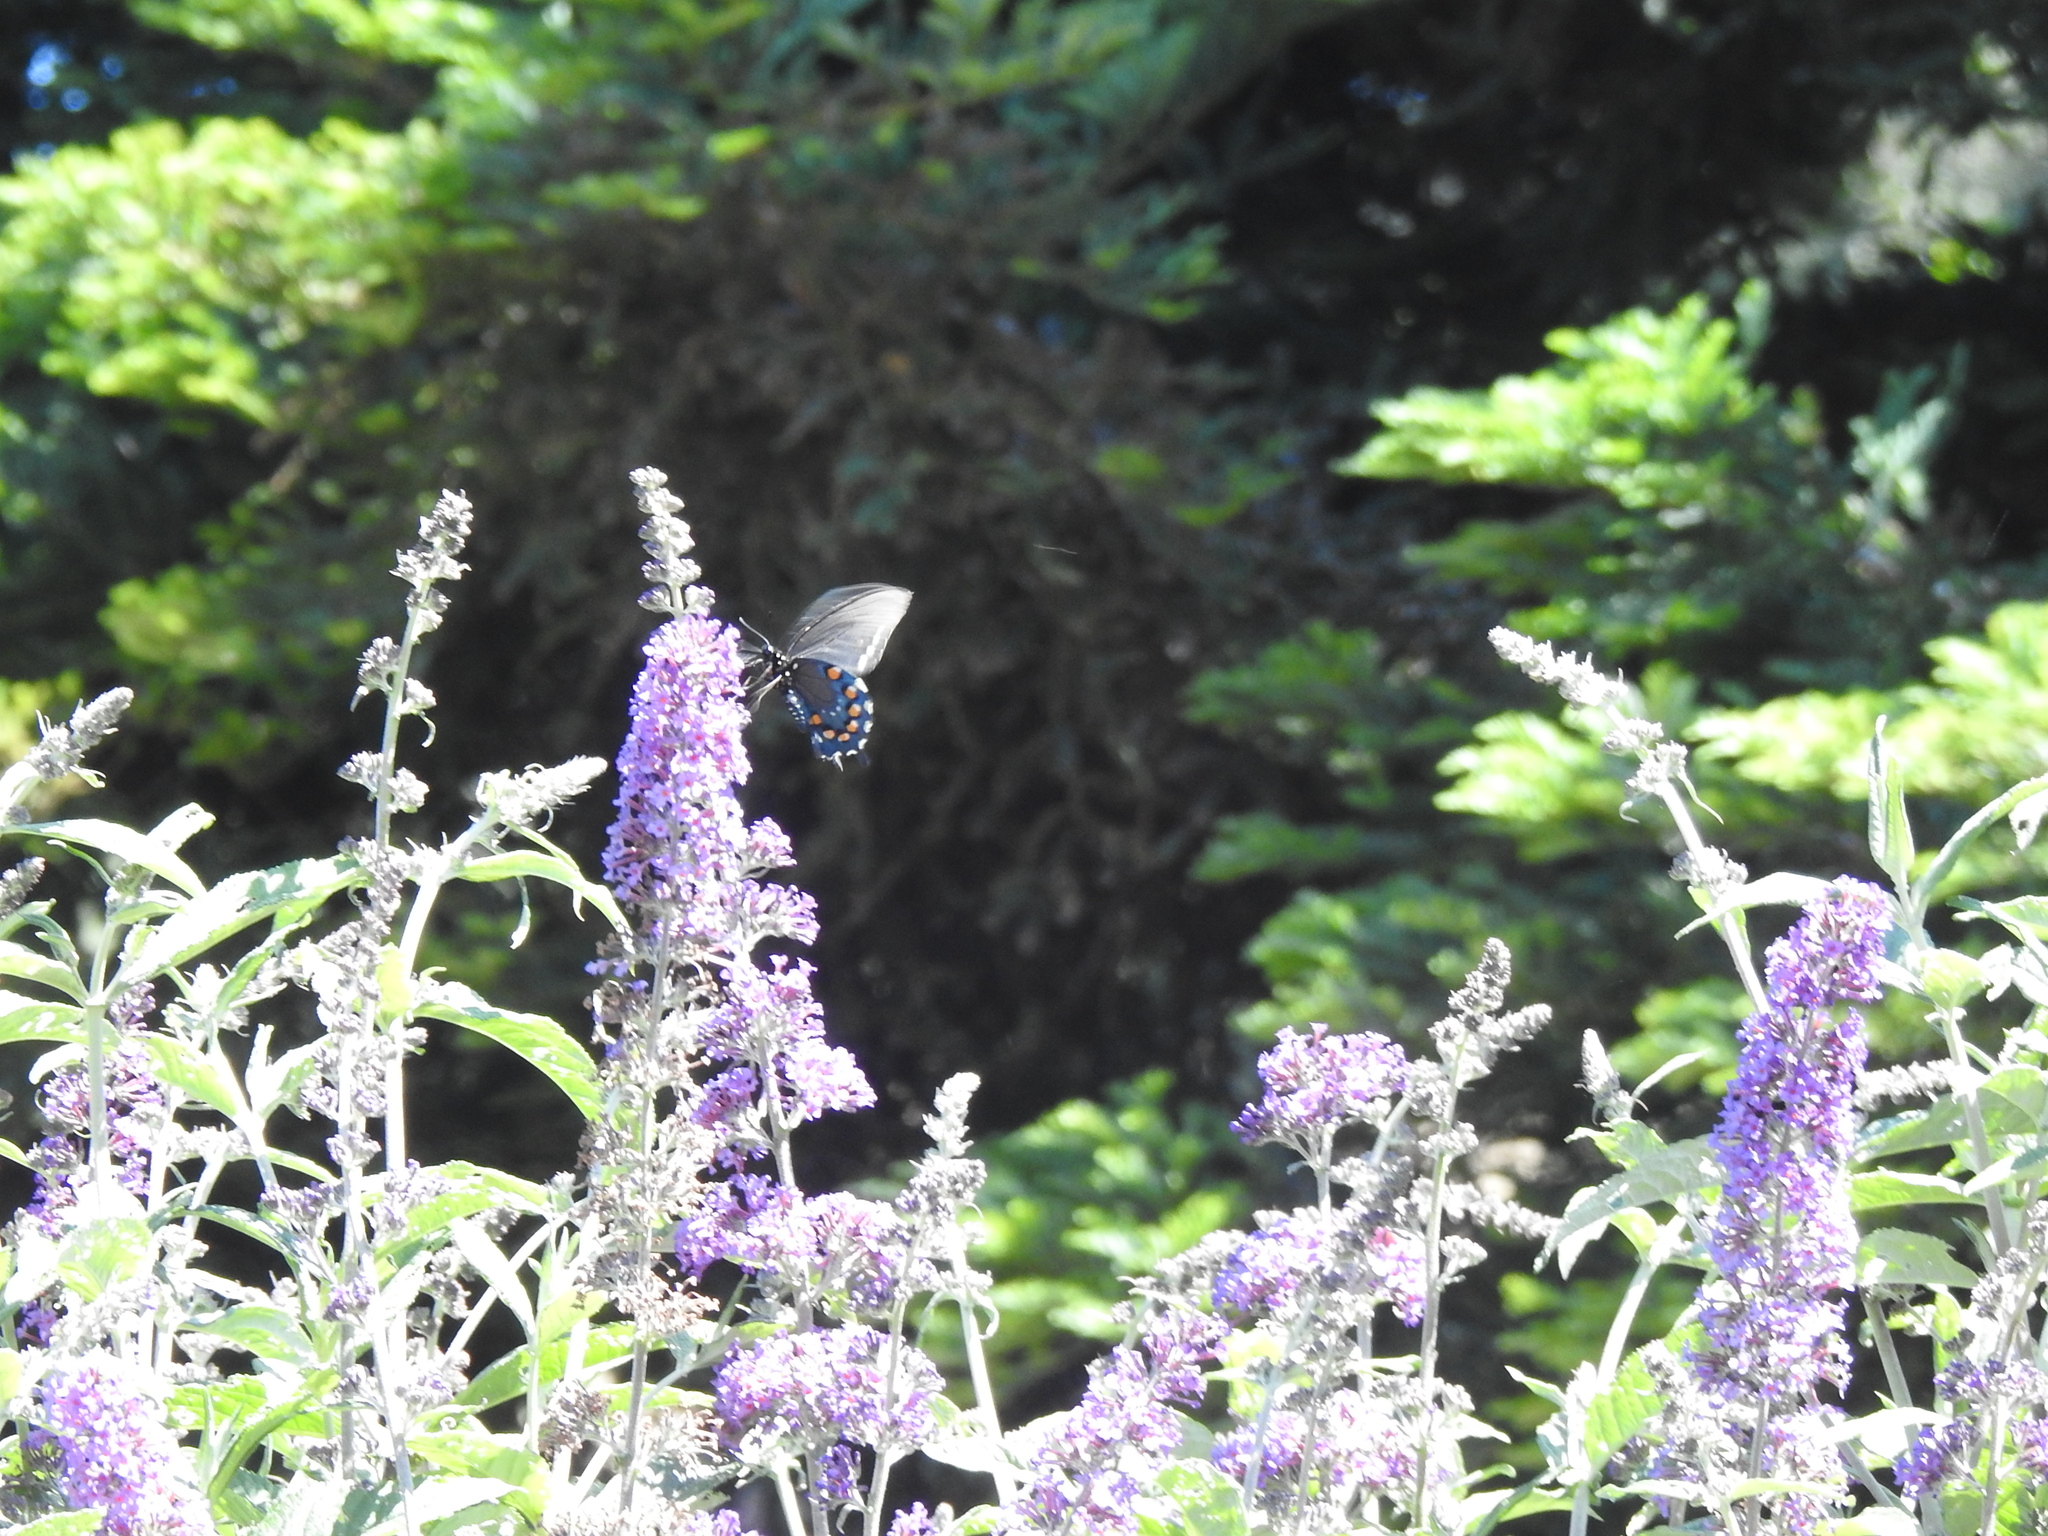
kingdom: Animalia
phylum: Arthropoda
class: Insecta
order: Lepidoptera
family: Papilionidae
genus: Battus
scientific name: Battus philenor
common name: Pipevine swallowtail
